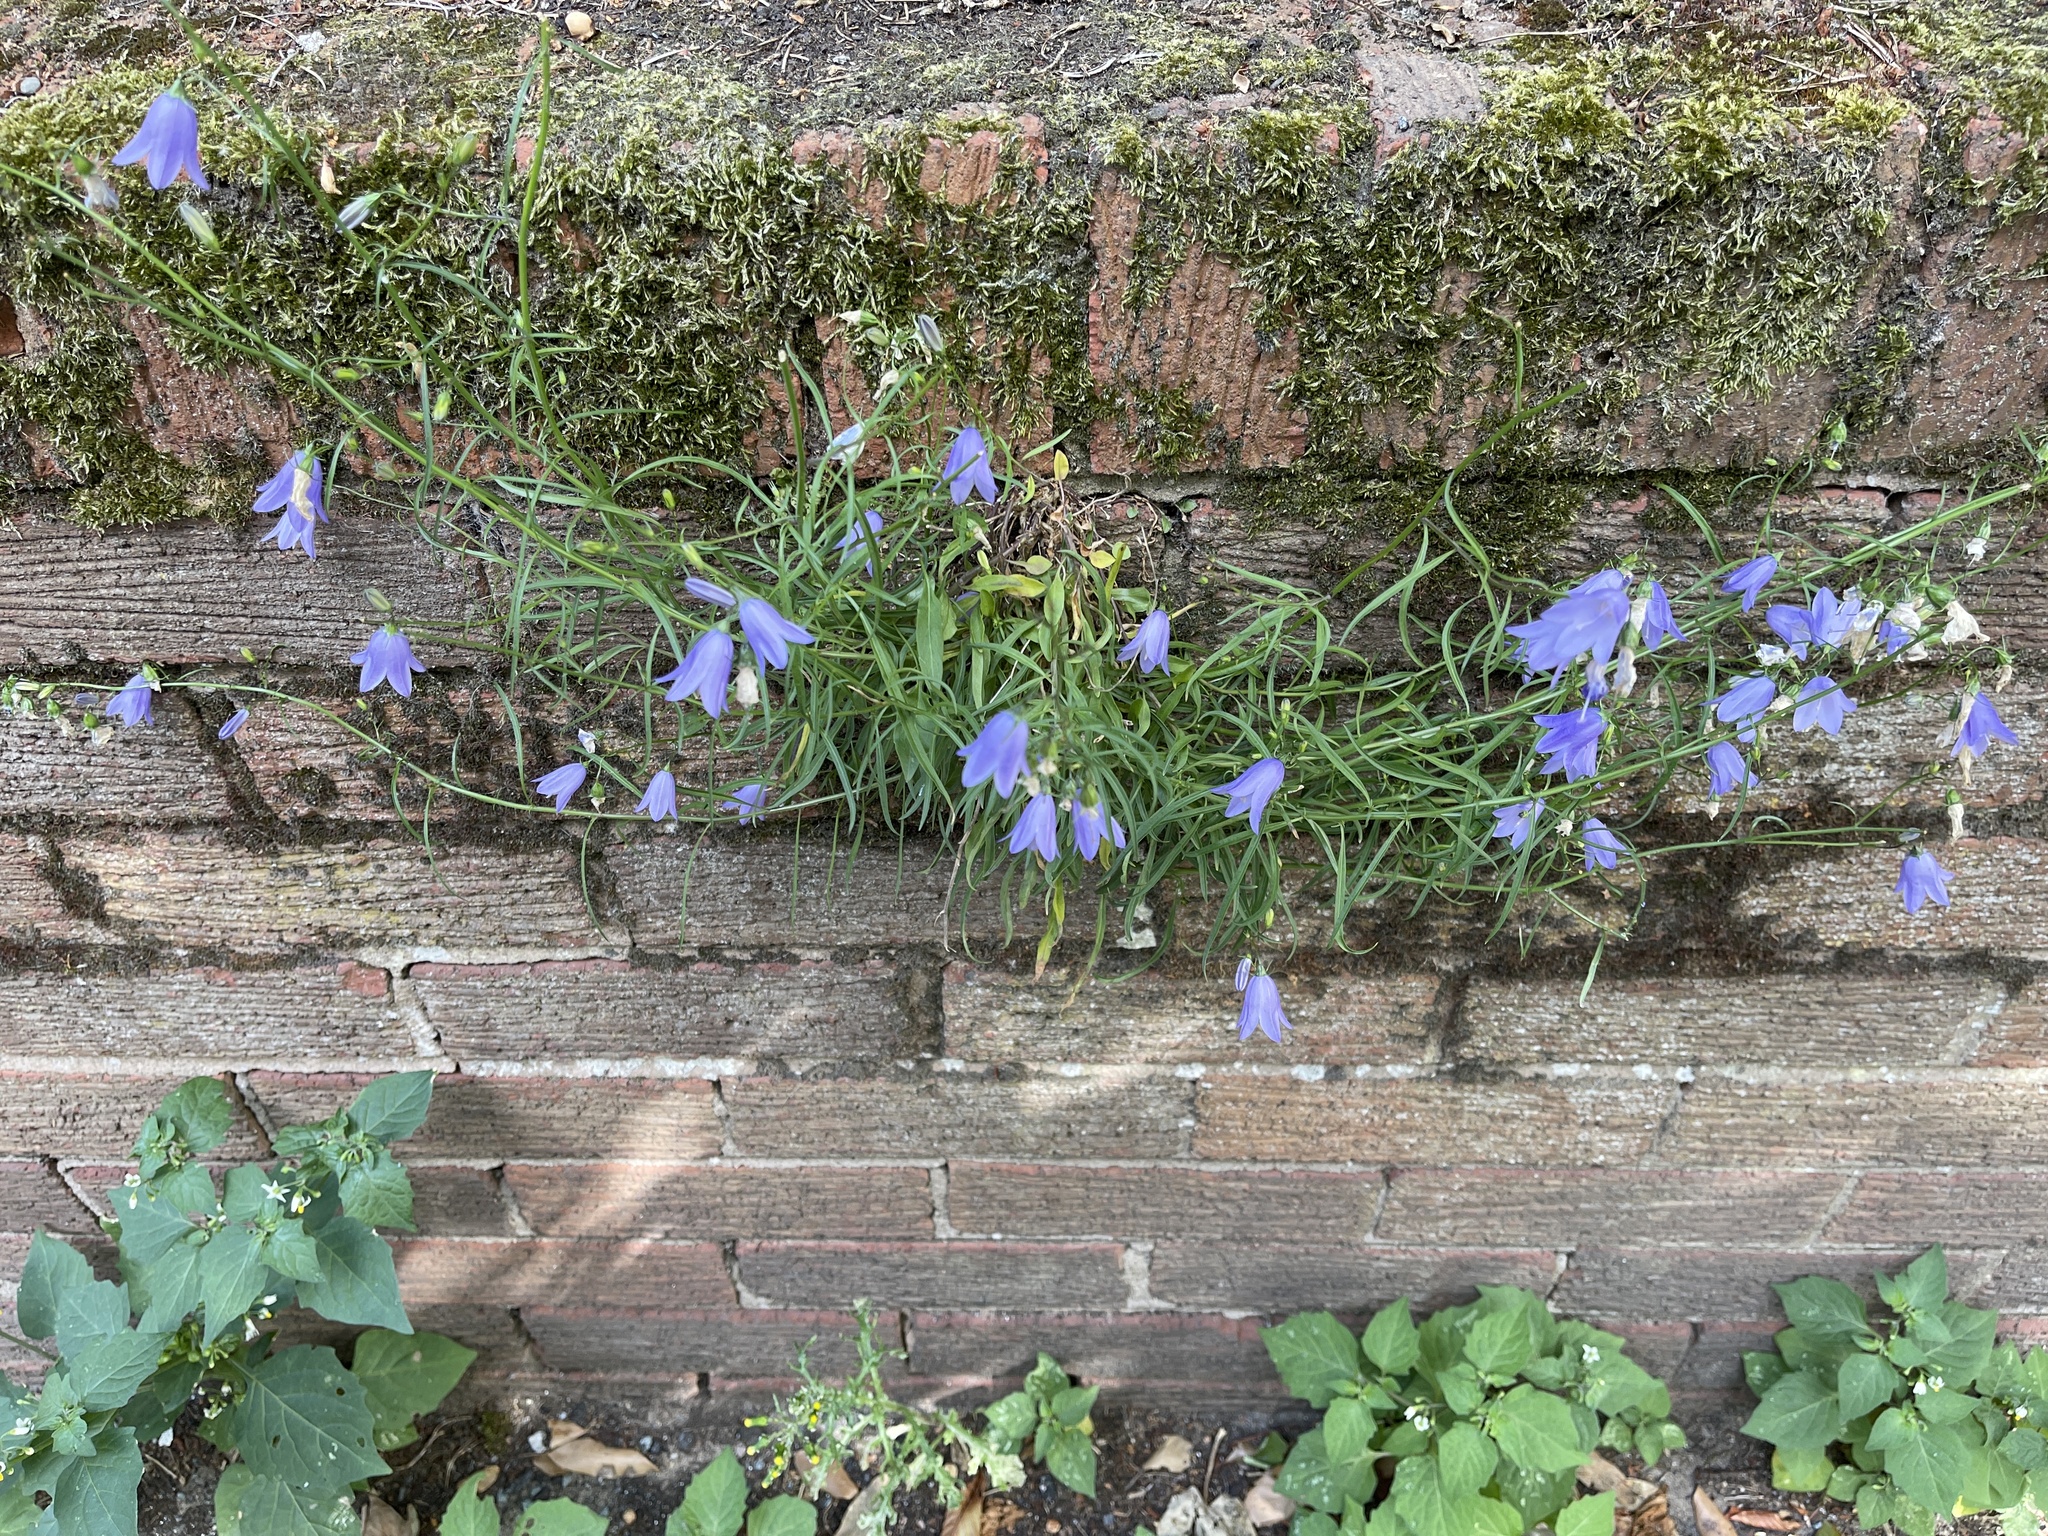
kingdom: Plantae
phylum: Tracheophyta
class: Magnoliopsida
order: Asterales
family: Campanulaceae
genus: Campanula
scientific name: Campanula rotundifolia
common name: Harebell
